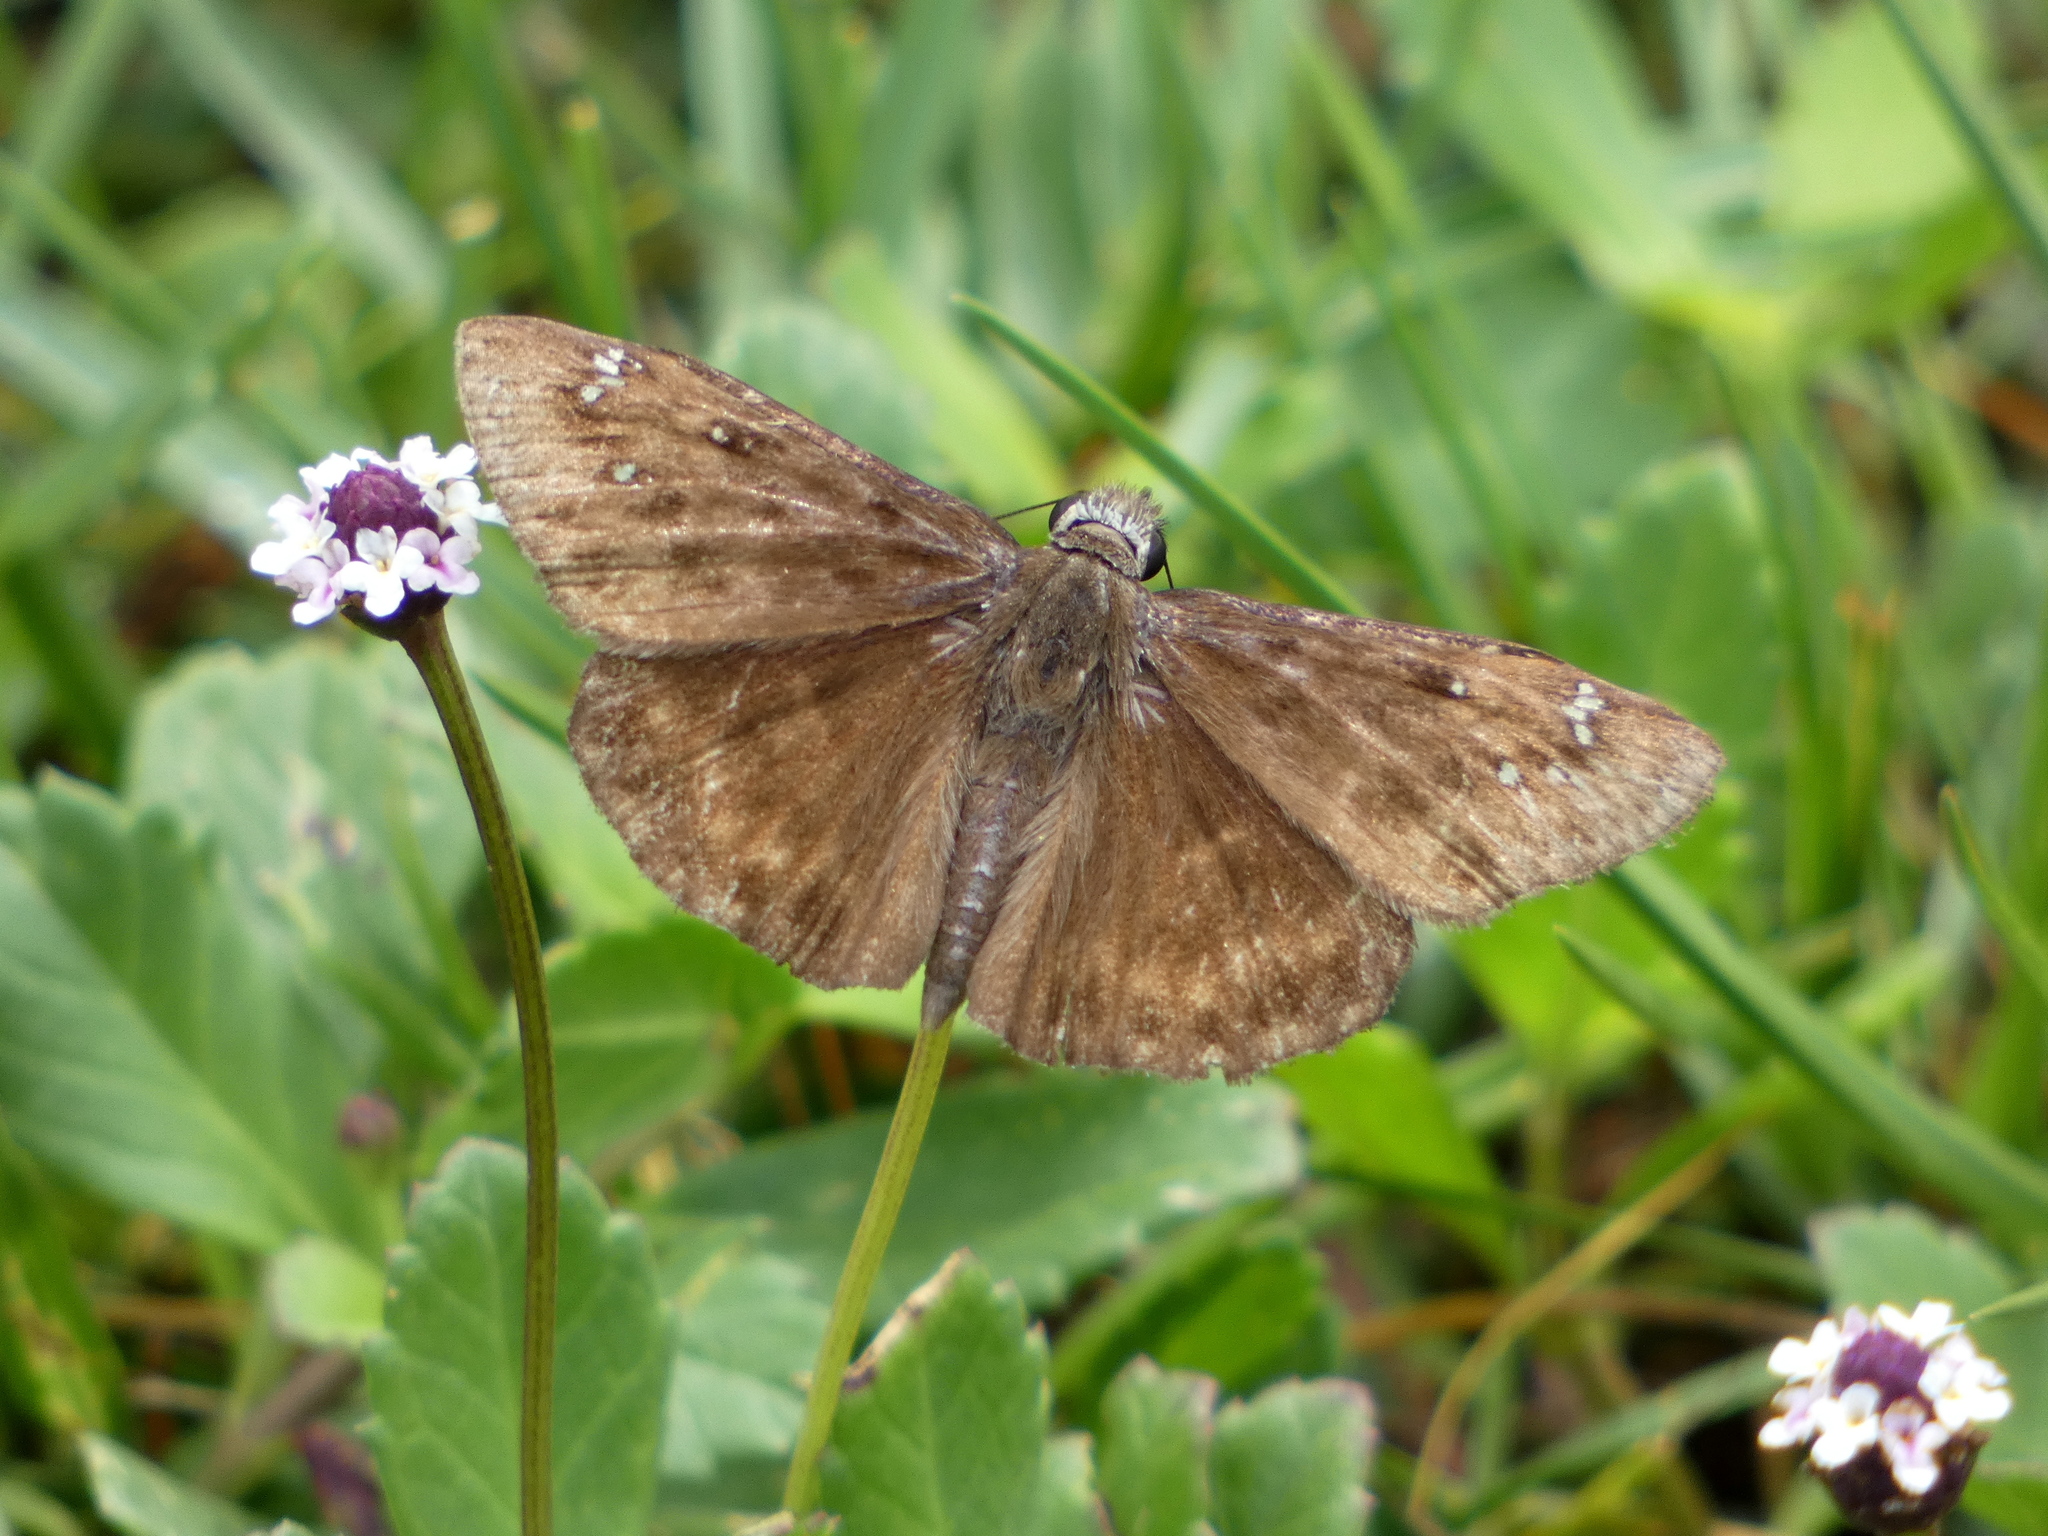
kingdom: Animalia
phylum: Arthropoda
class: Insecta
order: Lepidoptera
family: Hesperiidae
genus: Erynnis
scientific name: Erynnis horatius
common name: Horace's duskywing
